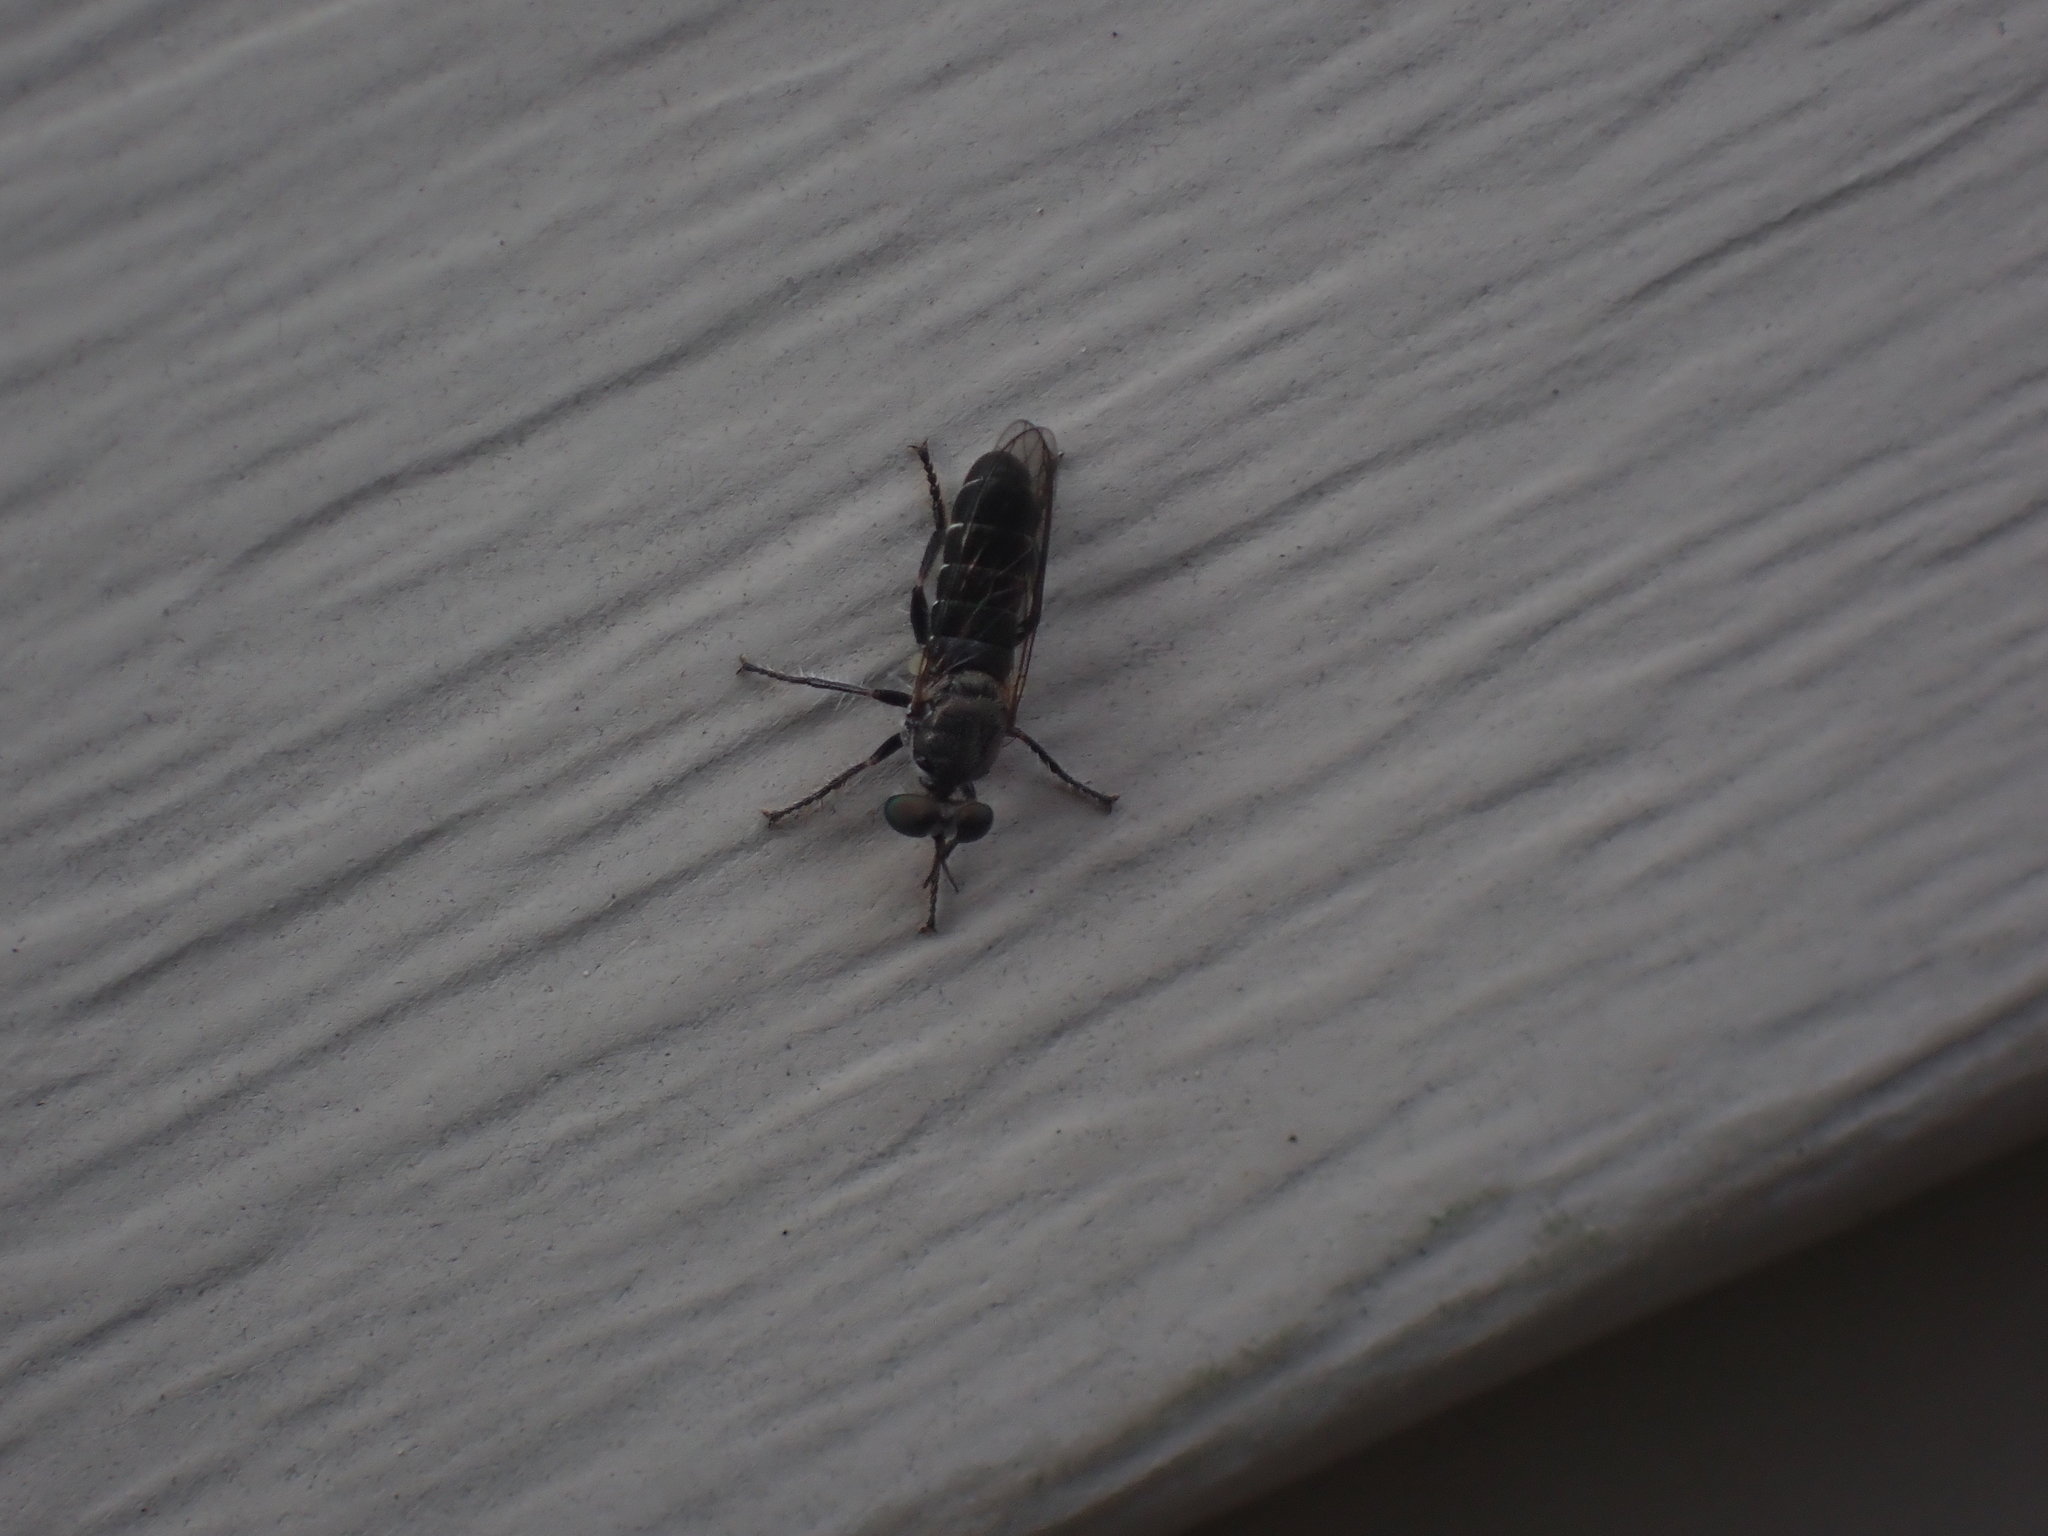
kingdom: Animalia
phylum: Arthropoda
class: Insecta
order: Diptera
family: Asilidae
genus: Atomosia
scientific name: Atomosia puella
